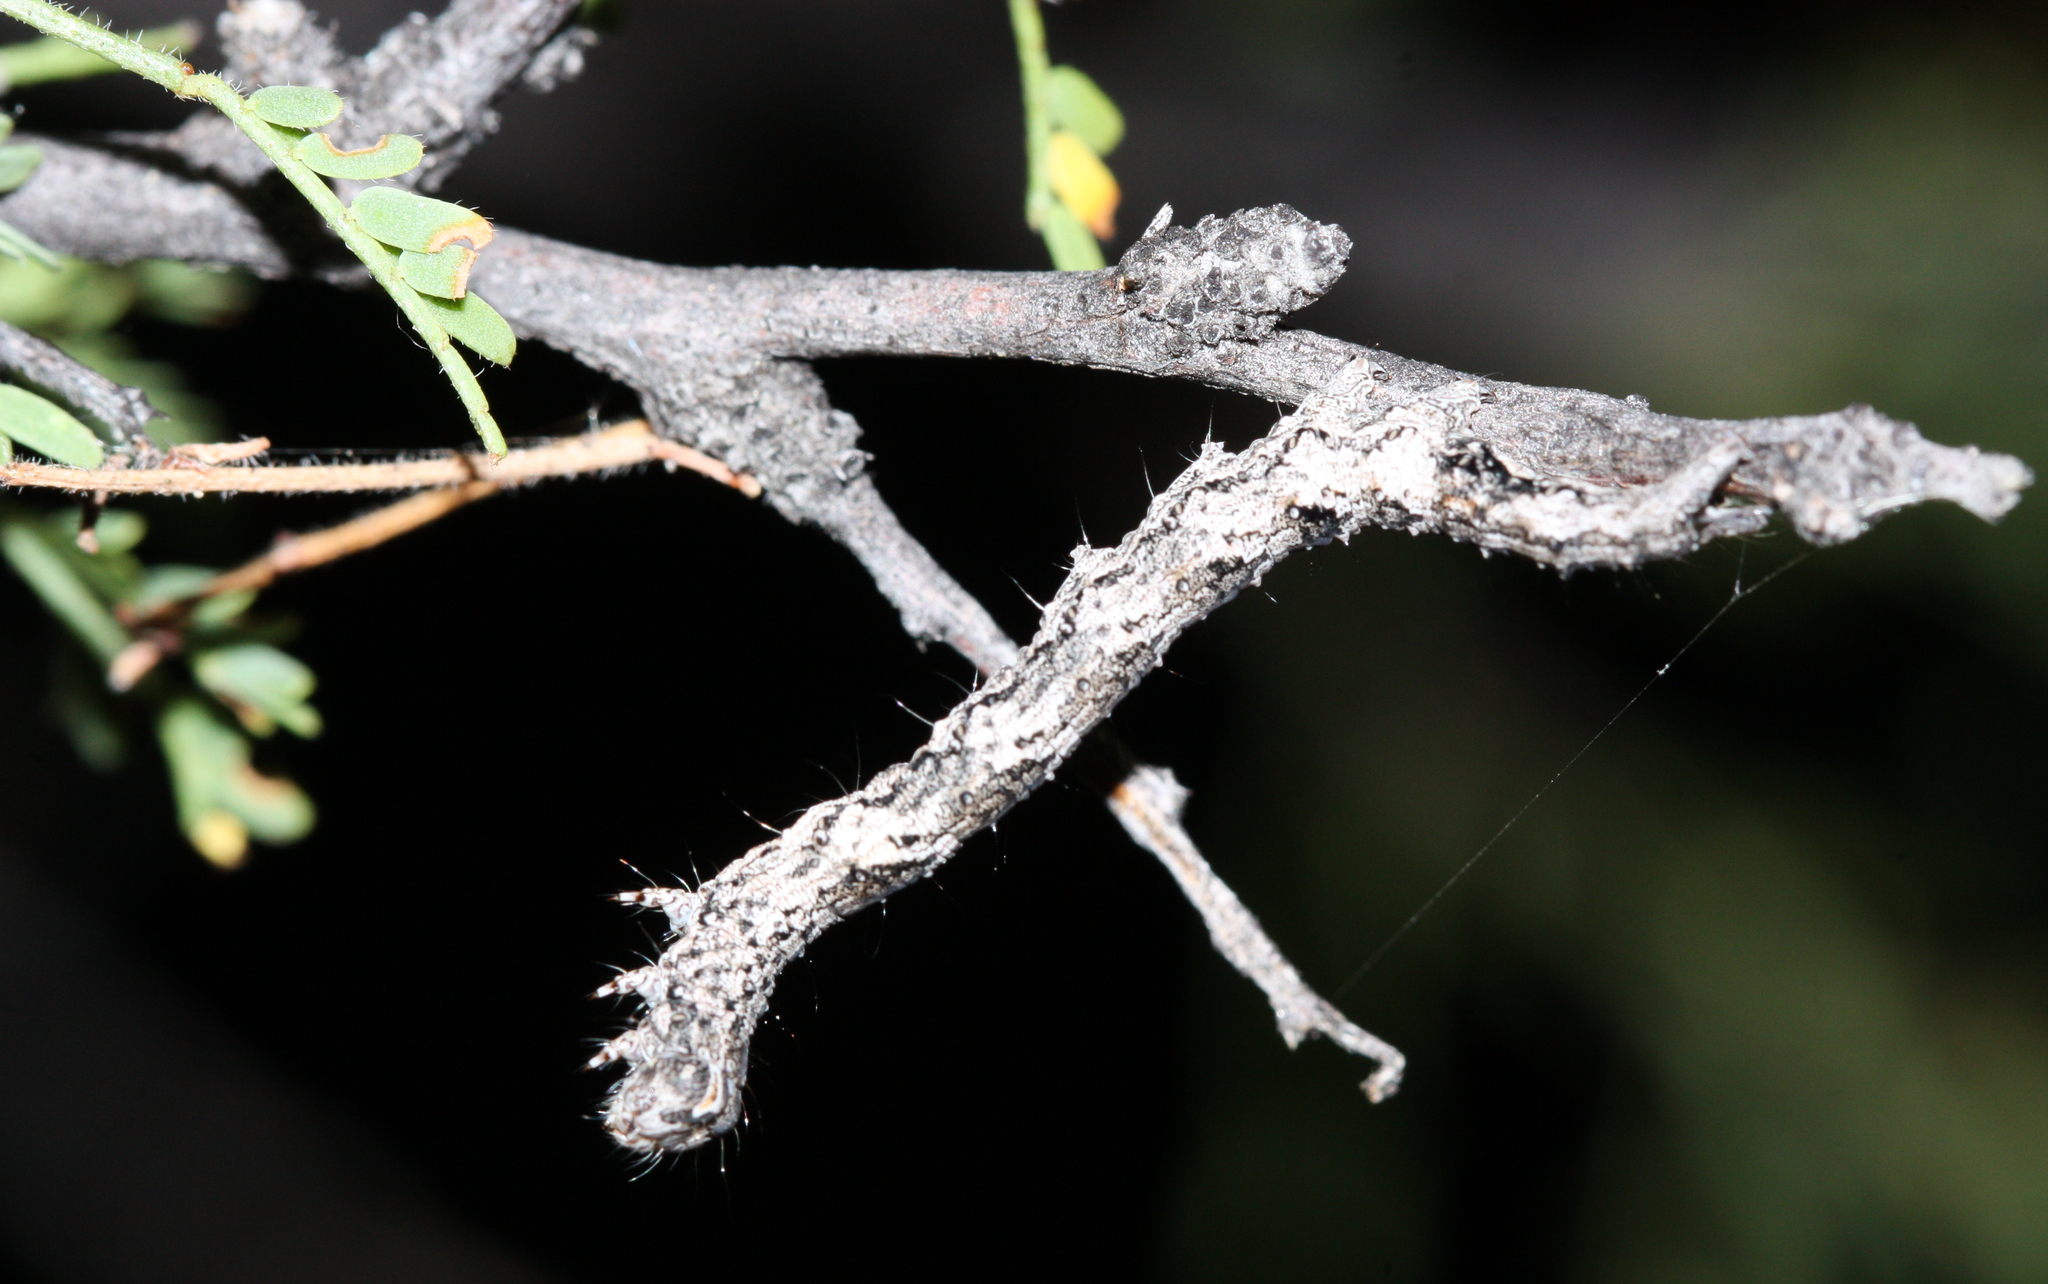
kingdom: Animalia
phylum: Arthropoda
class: Insecta
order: Lepidoptera
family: Erebidae
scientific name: Erebidae
